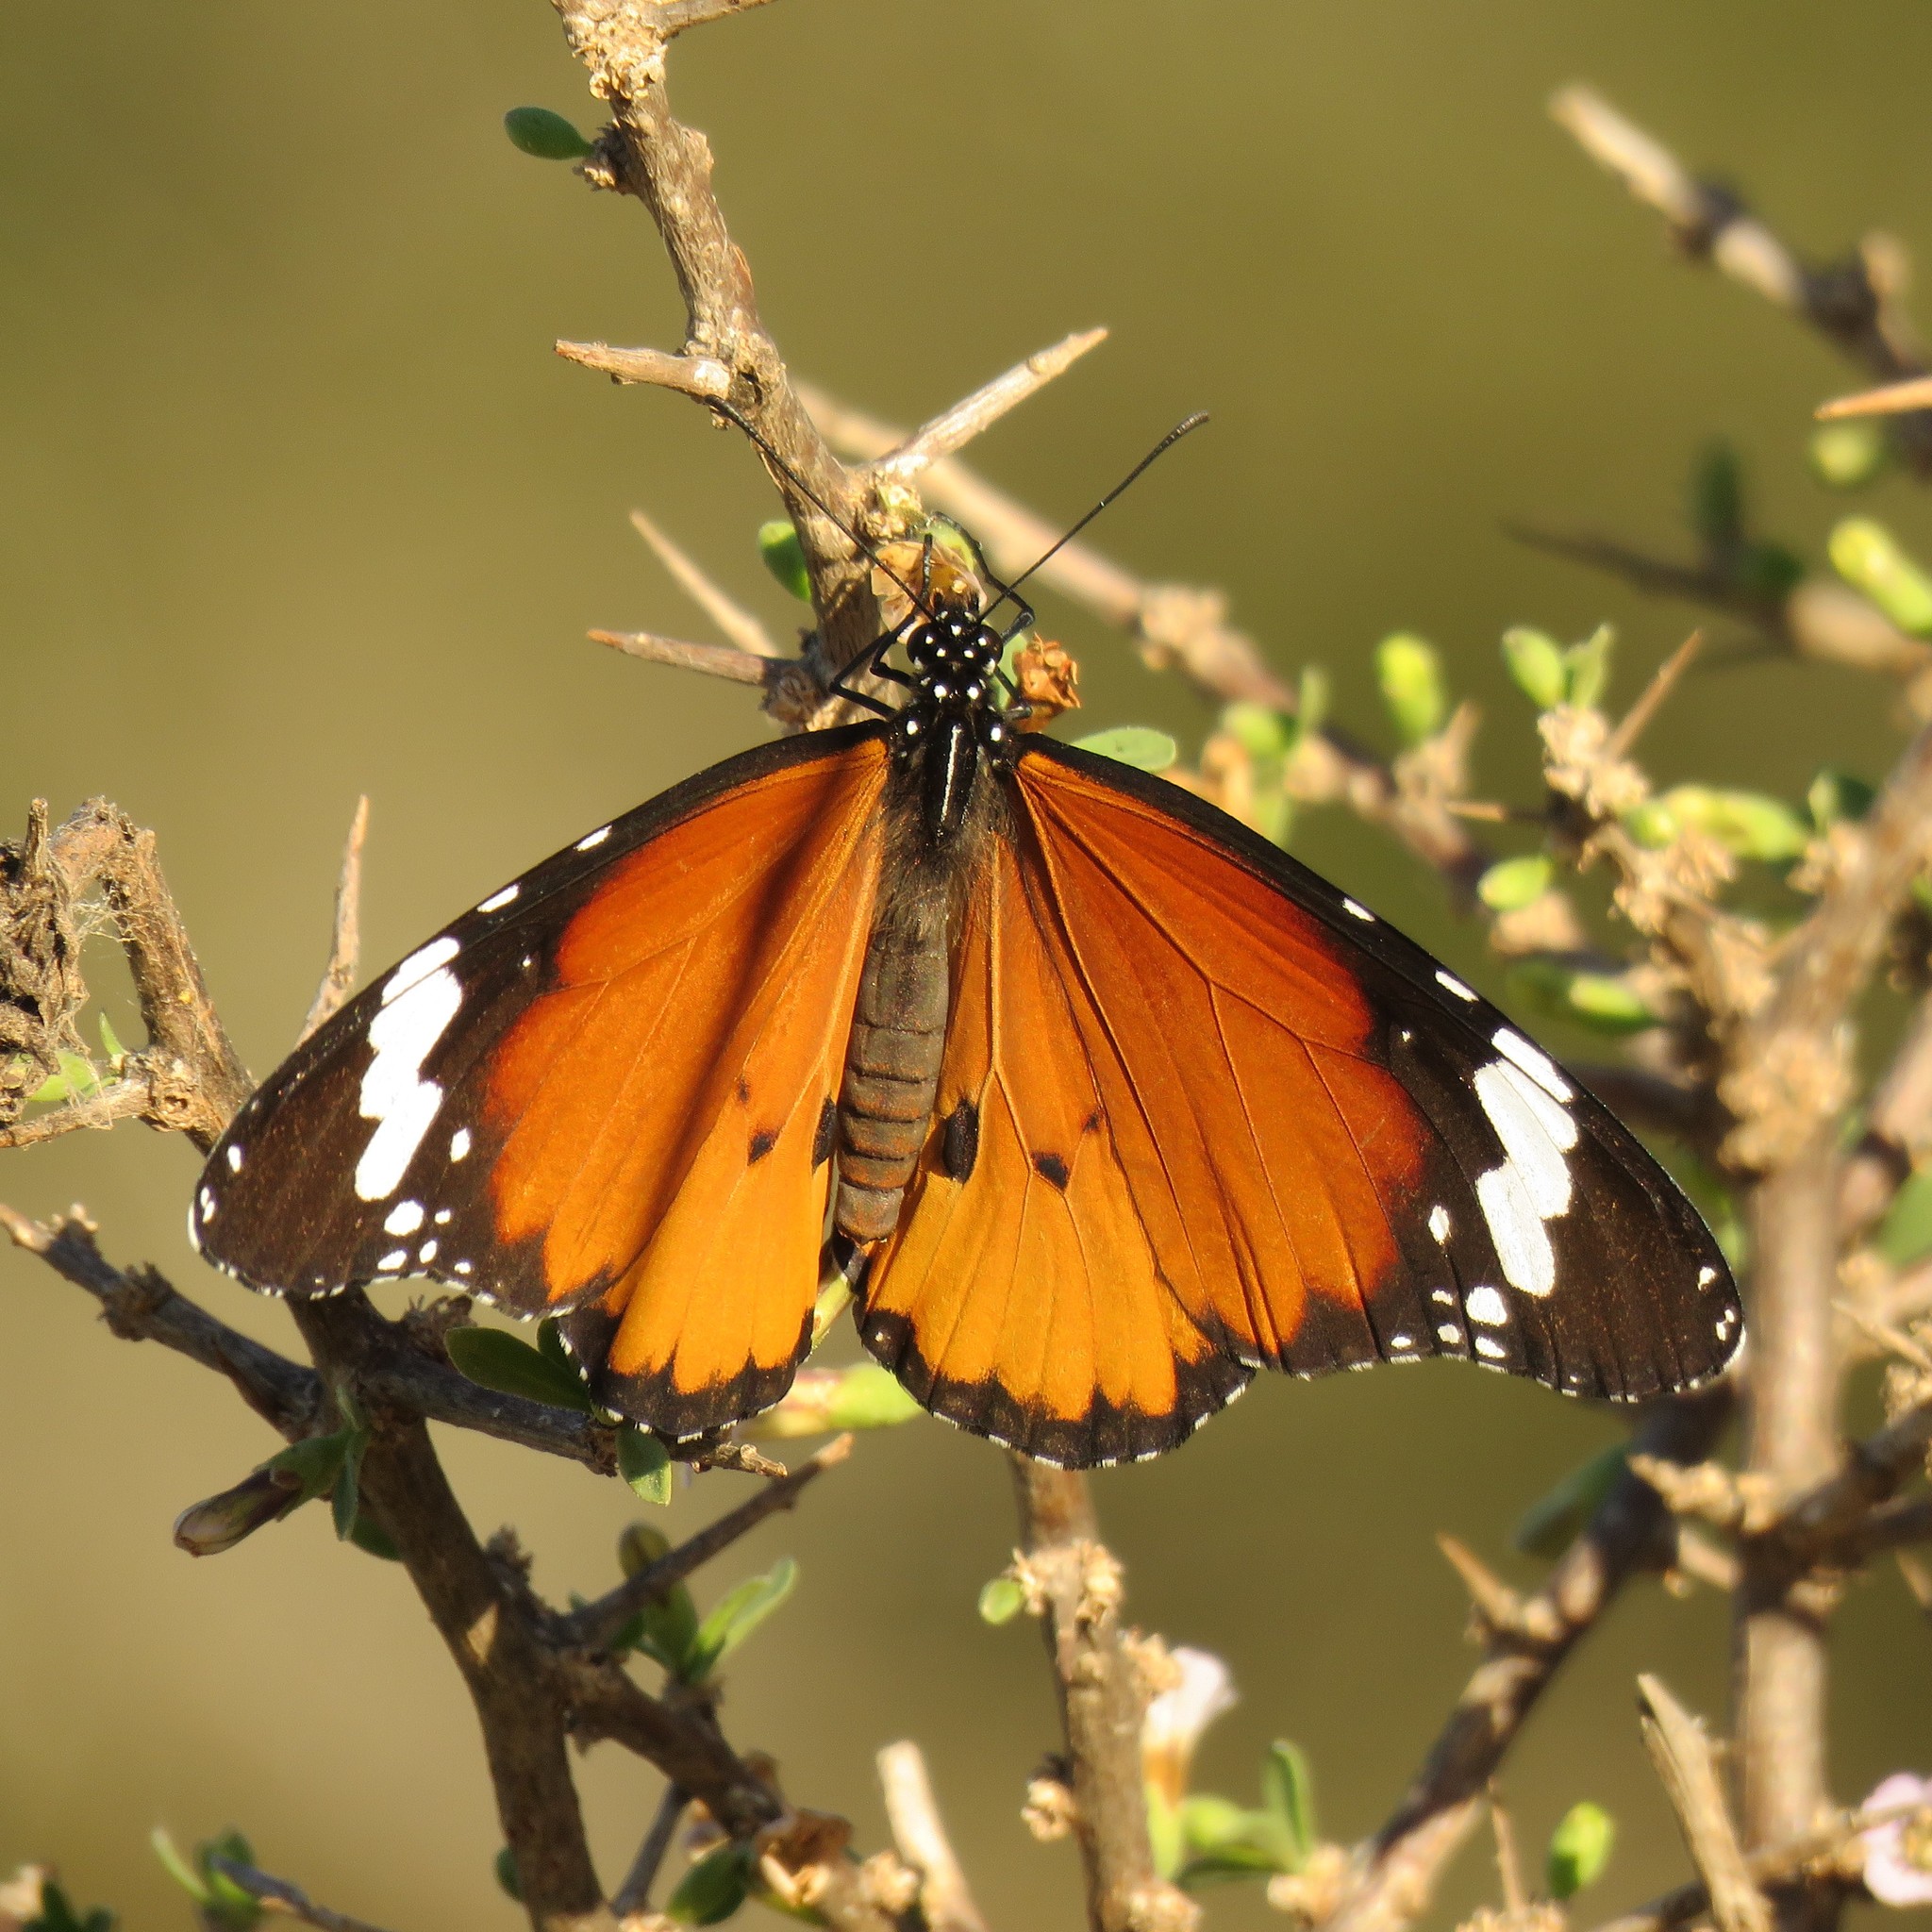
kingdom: Animalia
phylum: Arthropoda
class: Insecta
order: Lepidoptera
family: Nymphalidae
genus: Danaus
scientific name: Danaus chrysippus
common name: Plain tiger
